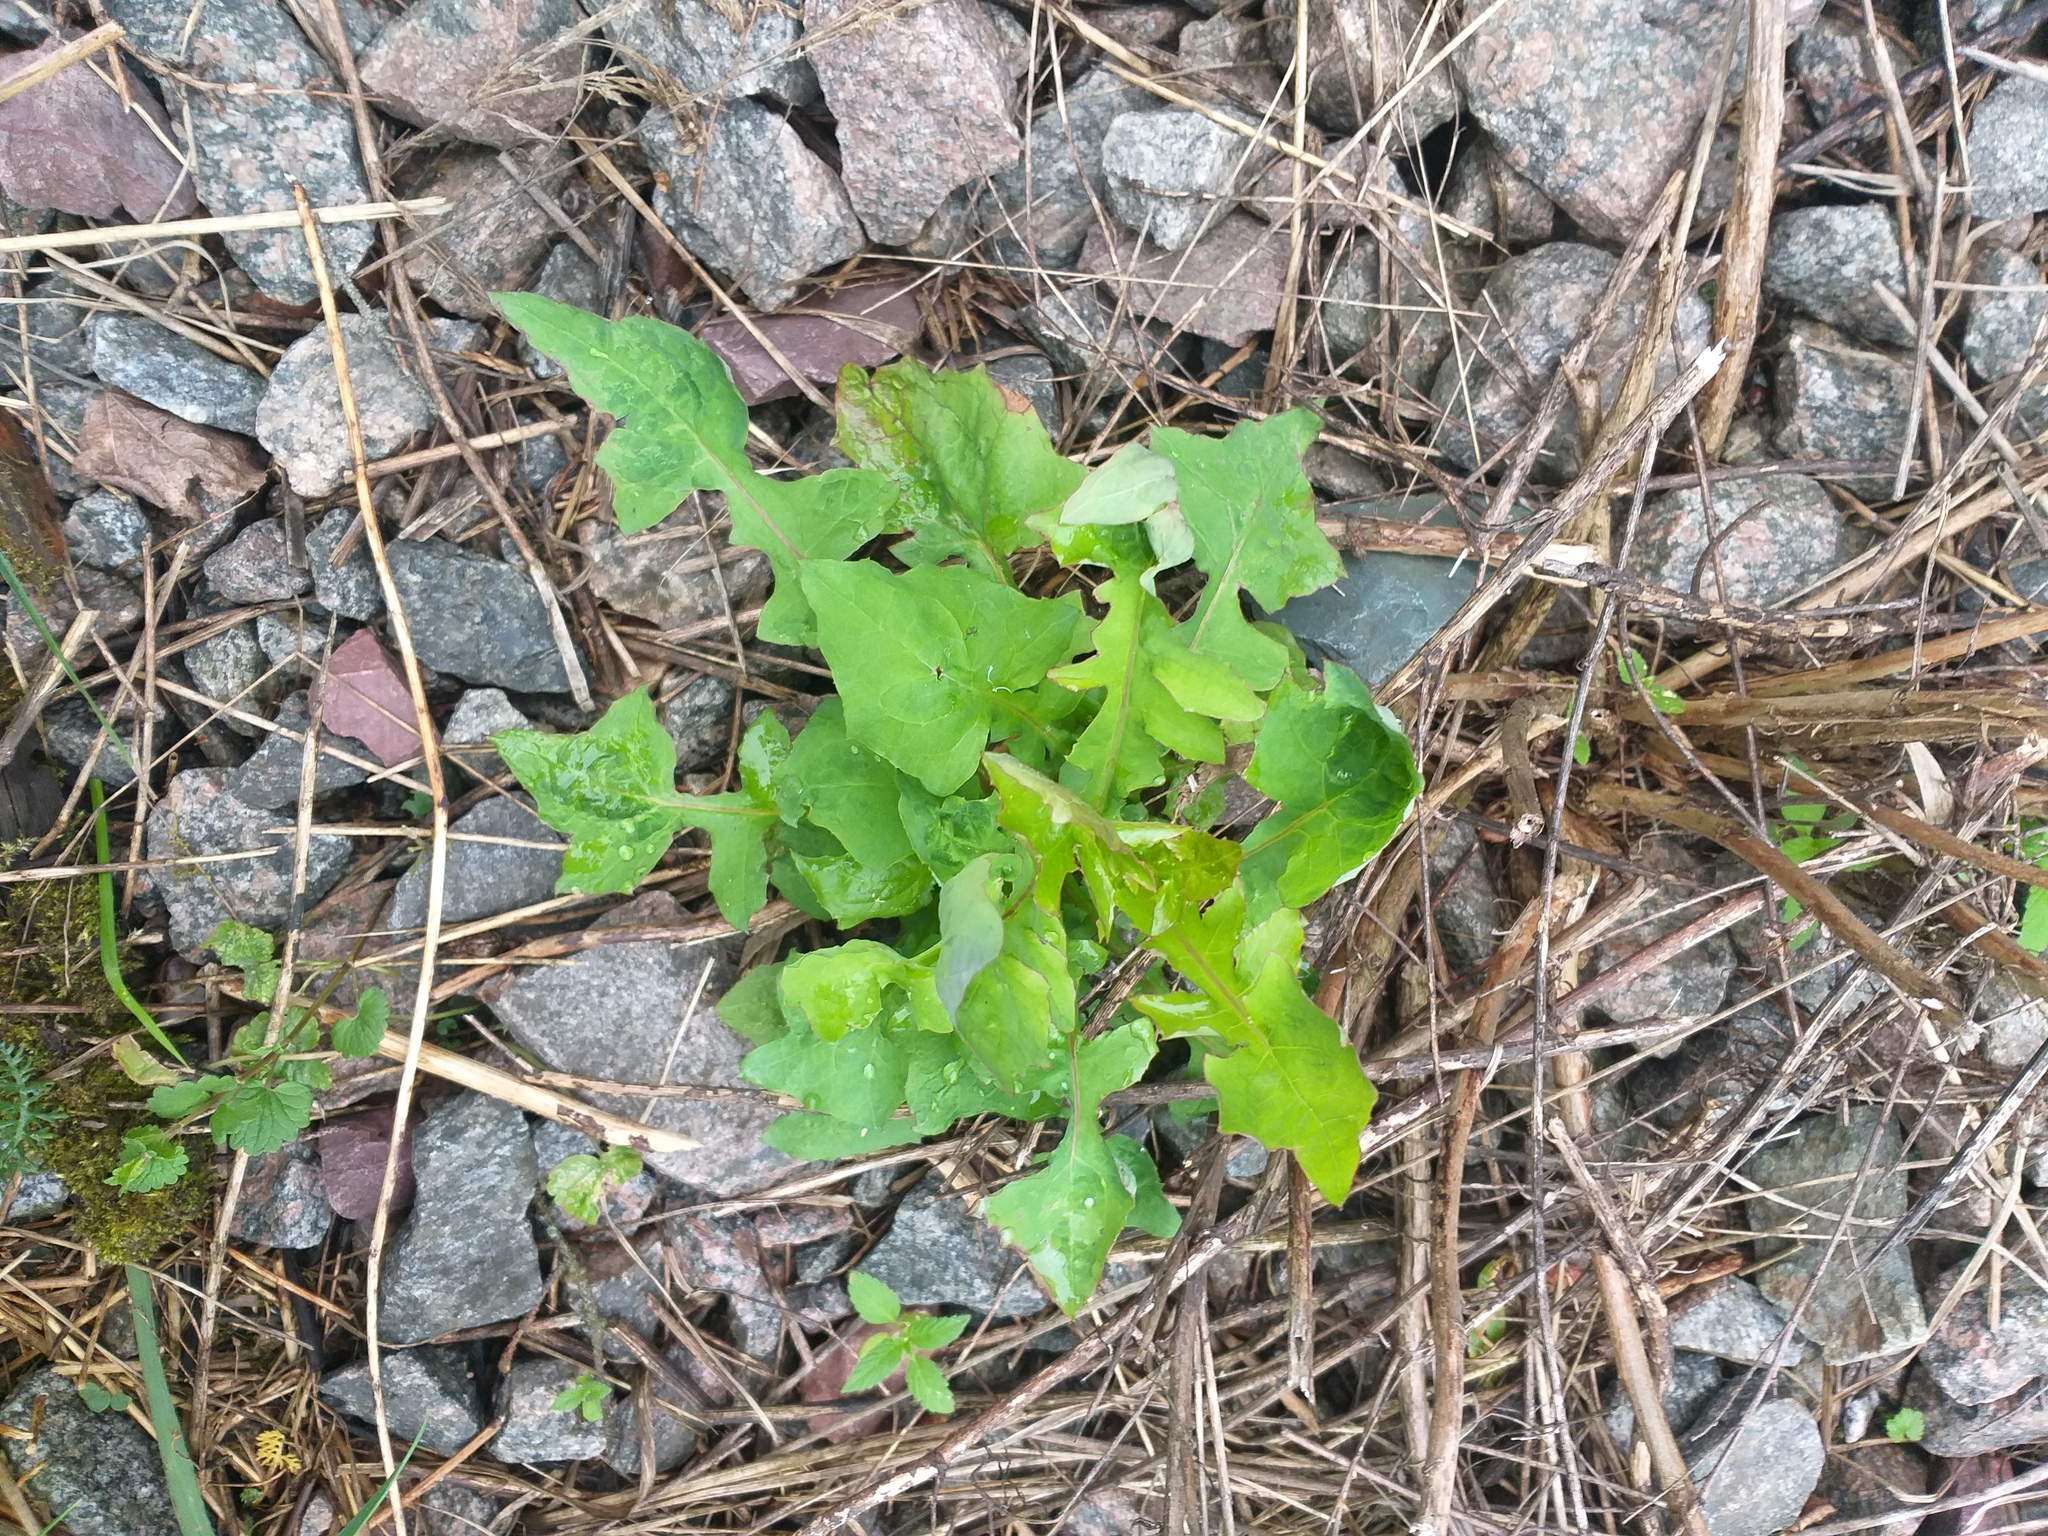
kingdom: Plantae
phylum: Tracheophyta
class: Magnoliopsida
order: Asterales
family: Asteraceae
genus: Mycelis
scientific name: Mycelis muralis
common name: Wall lettuce
